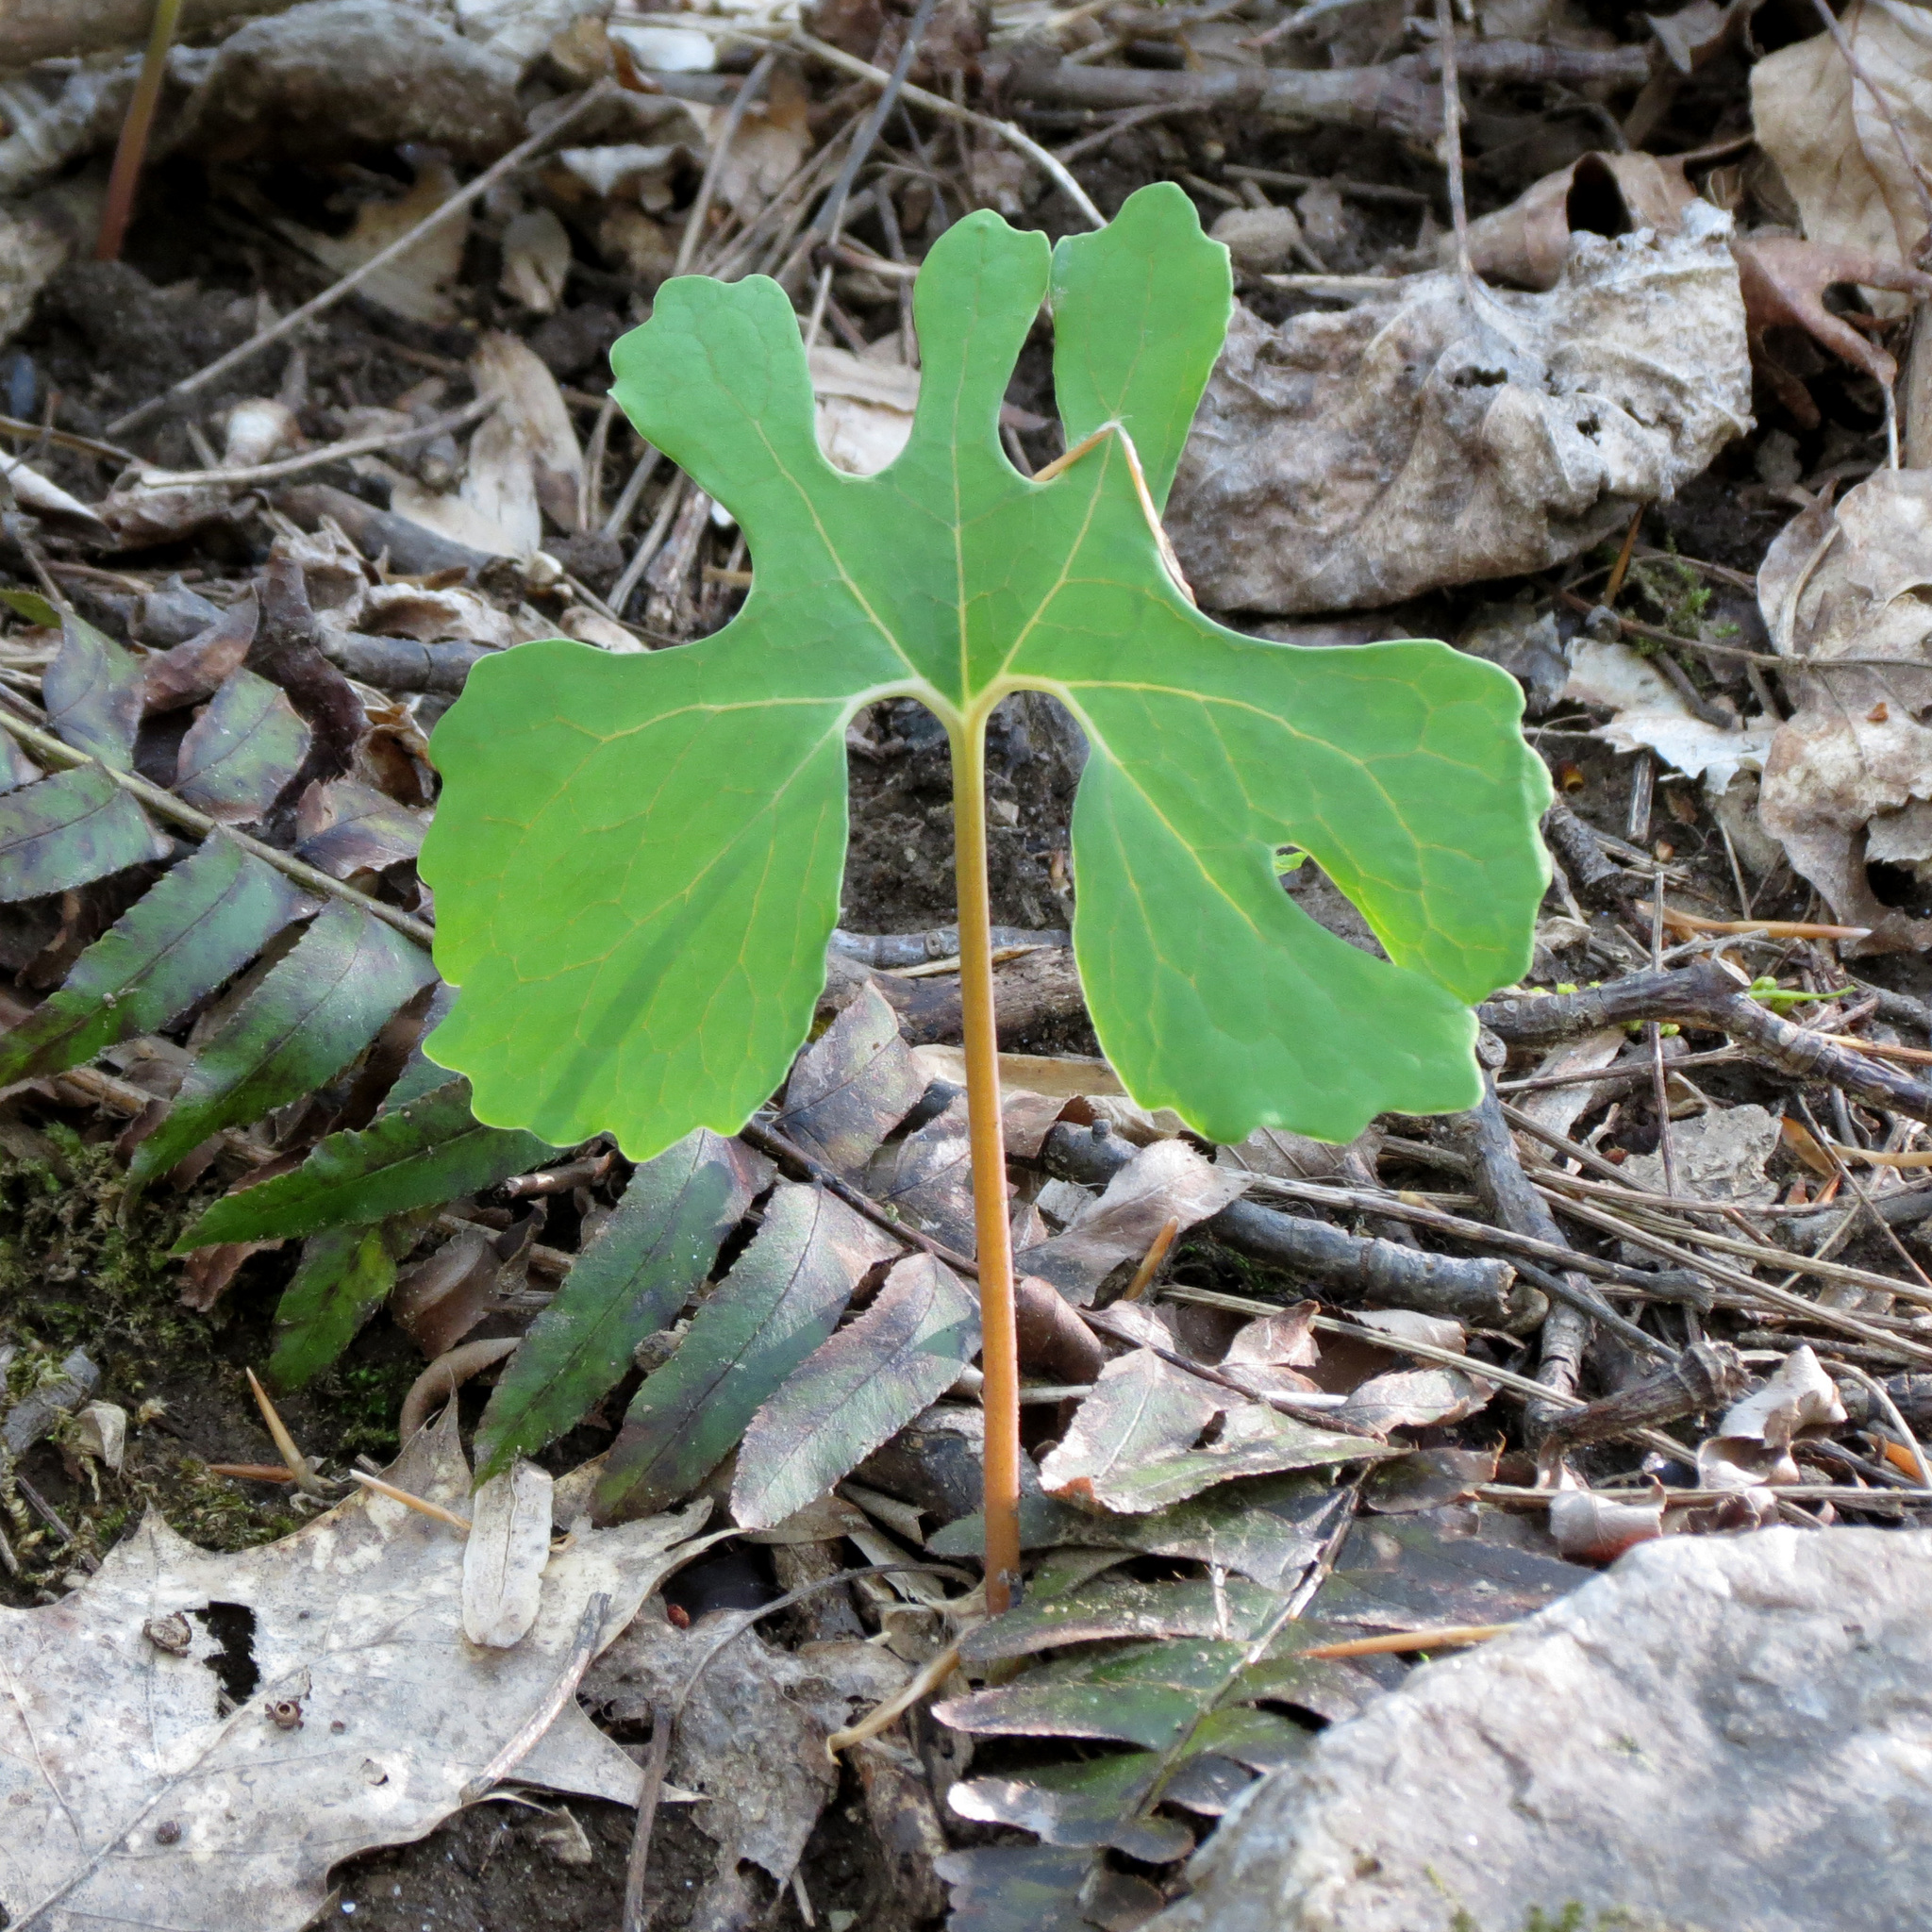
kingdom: Plantae
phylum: Tracheophyta
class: Magnoliopsida
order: Ranunculales
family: Papaveraceae
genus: Sanguinaria
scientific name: Sanguinaria canadensis
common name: Bloodroot
